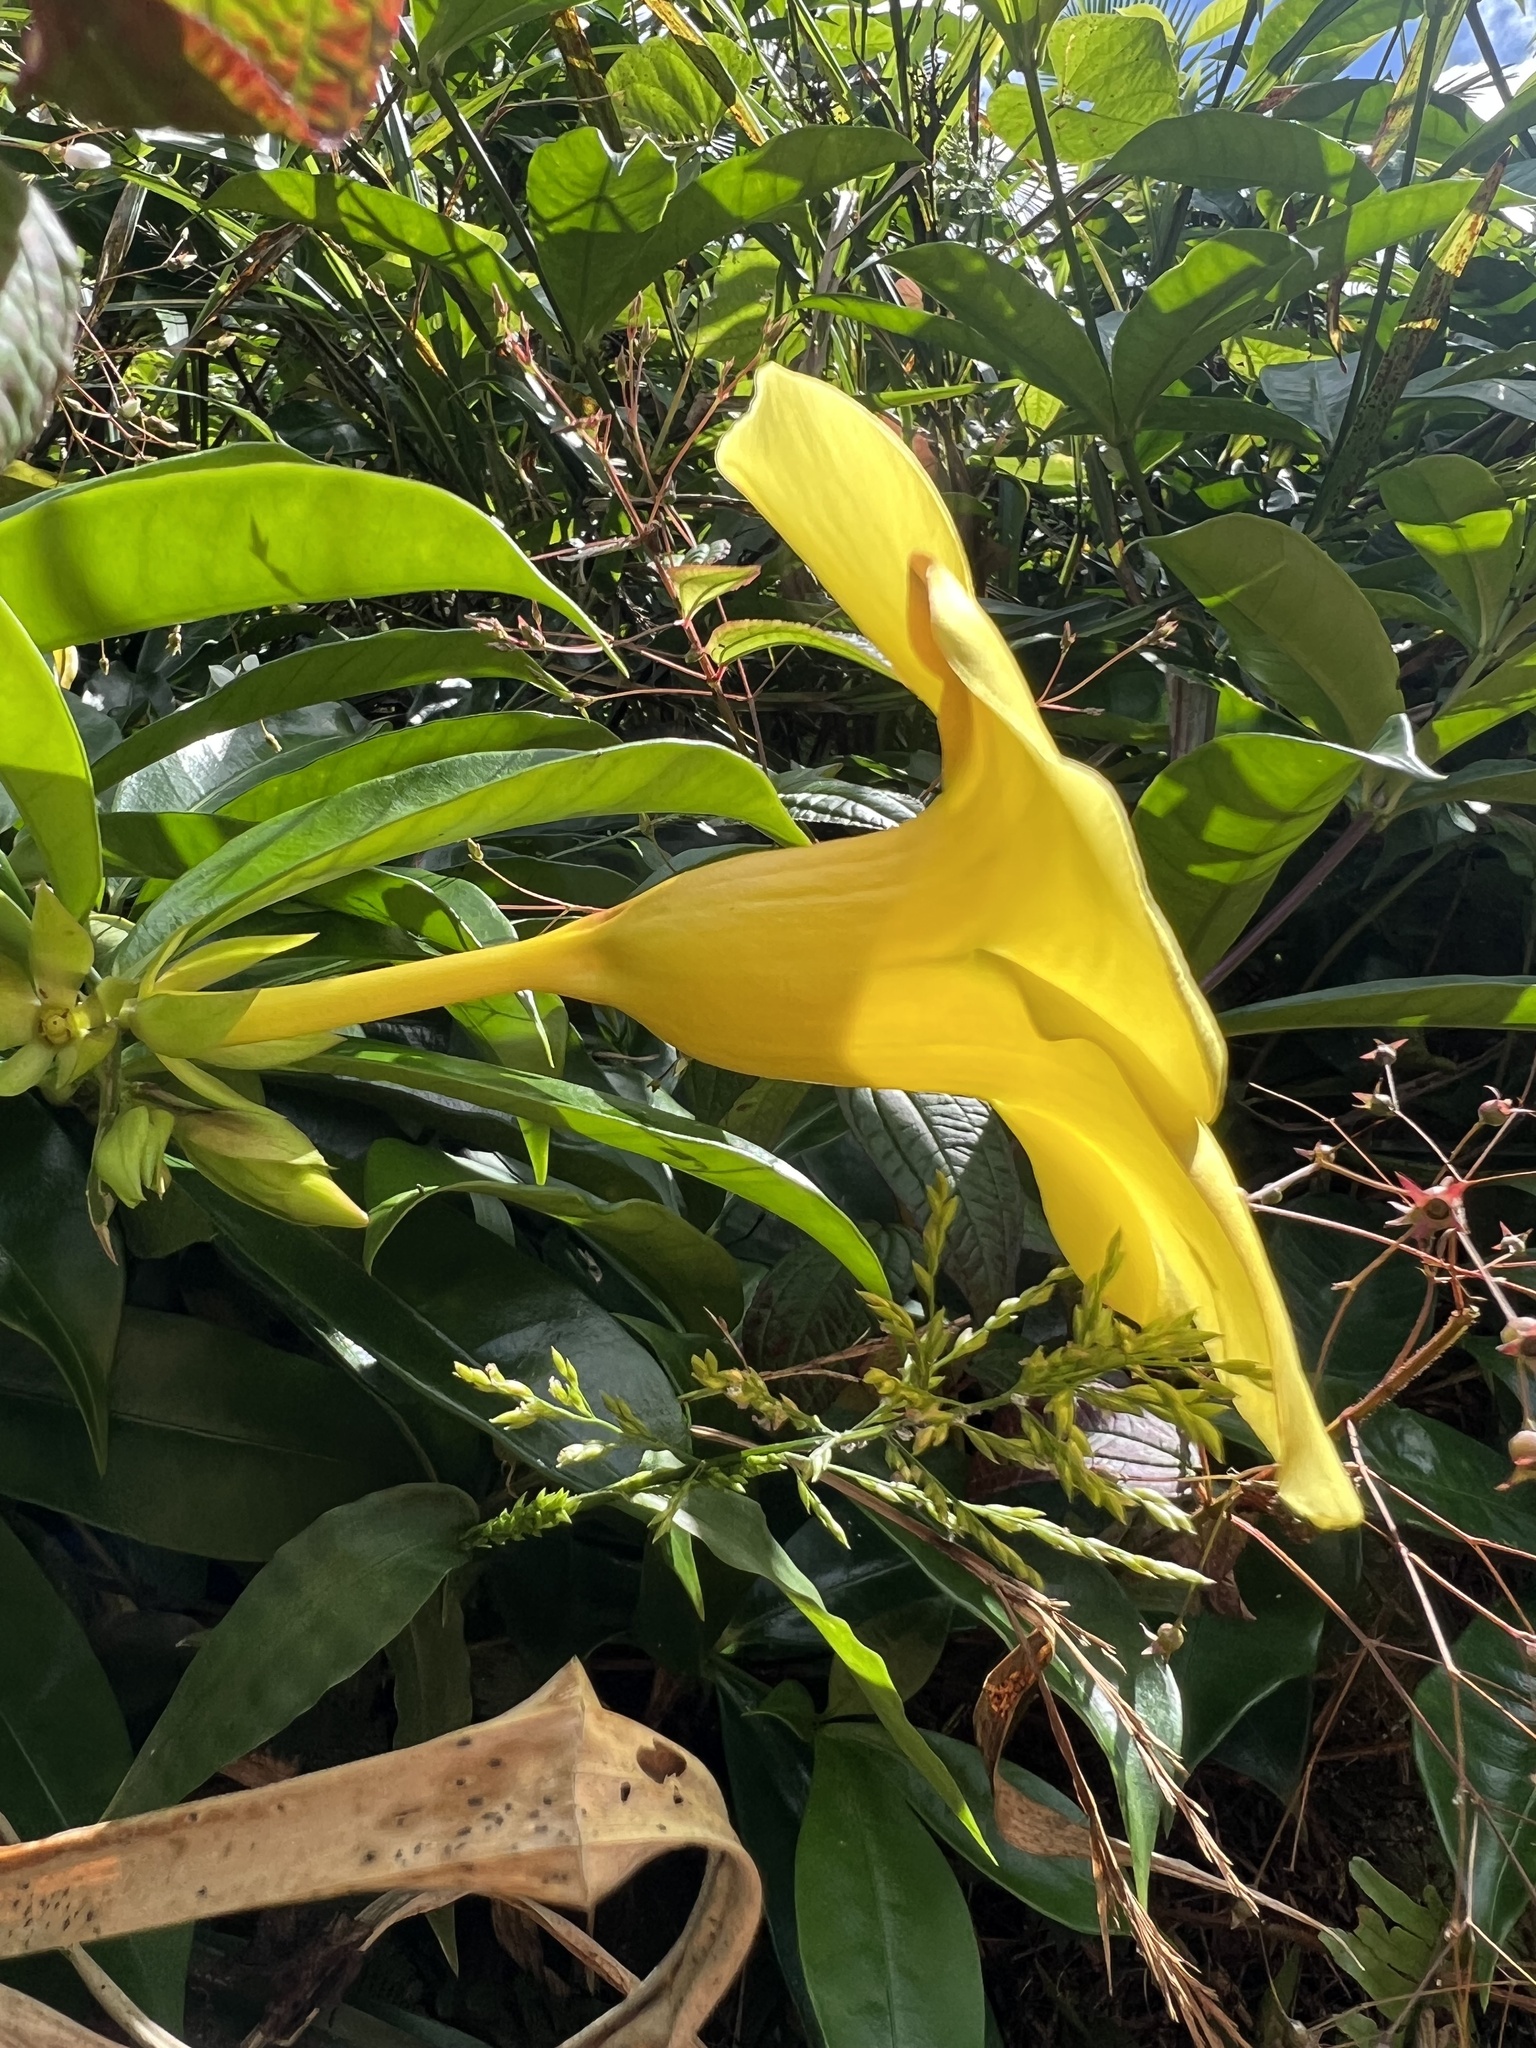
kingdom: Plantae
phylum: Tracheophyta
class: Magnoliopsida
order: Gentianales
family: Apocynaceae
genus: Allamanda
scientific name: Allamanda cathartica
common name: Golden trumpet
